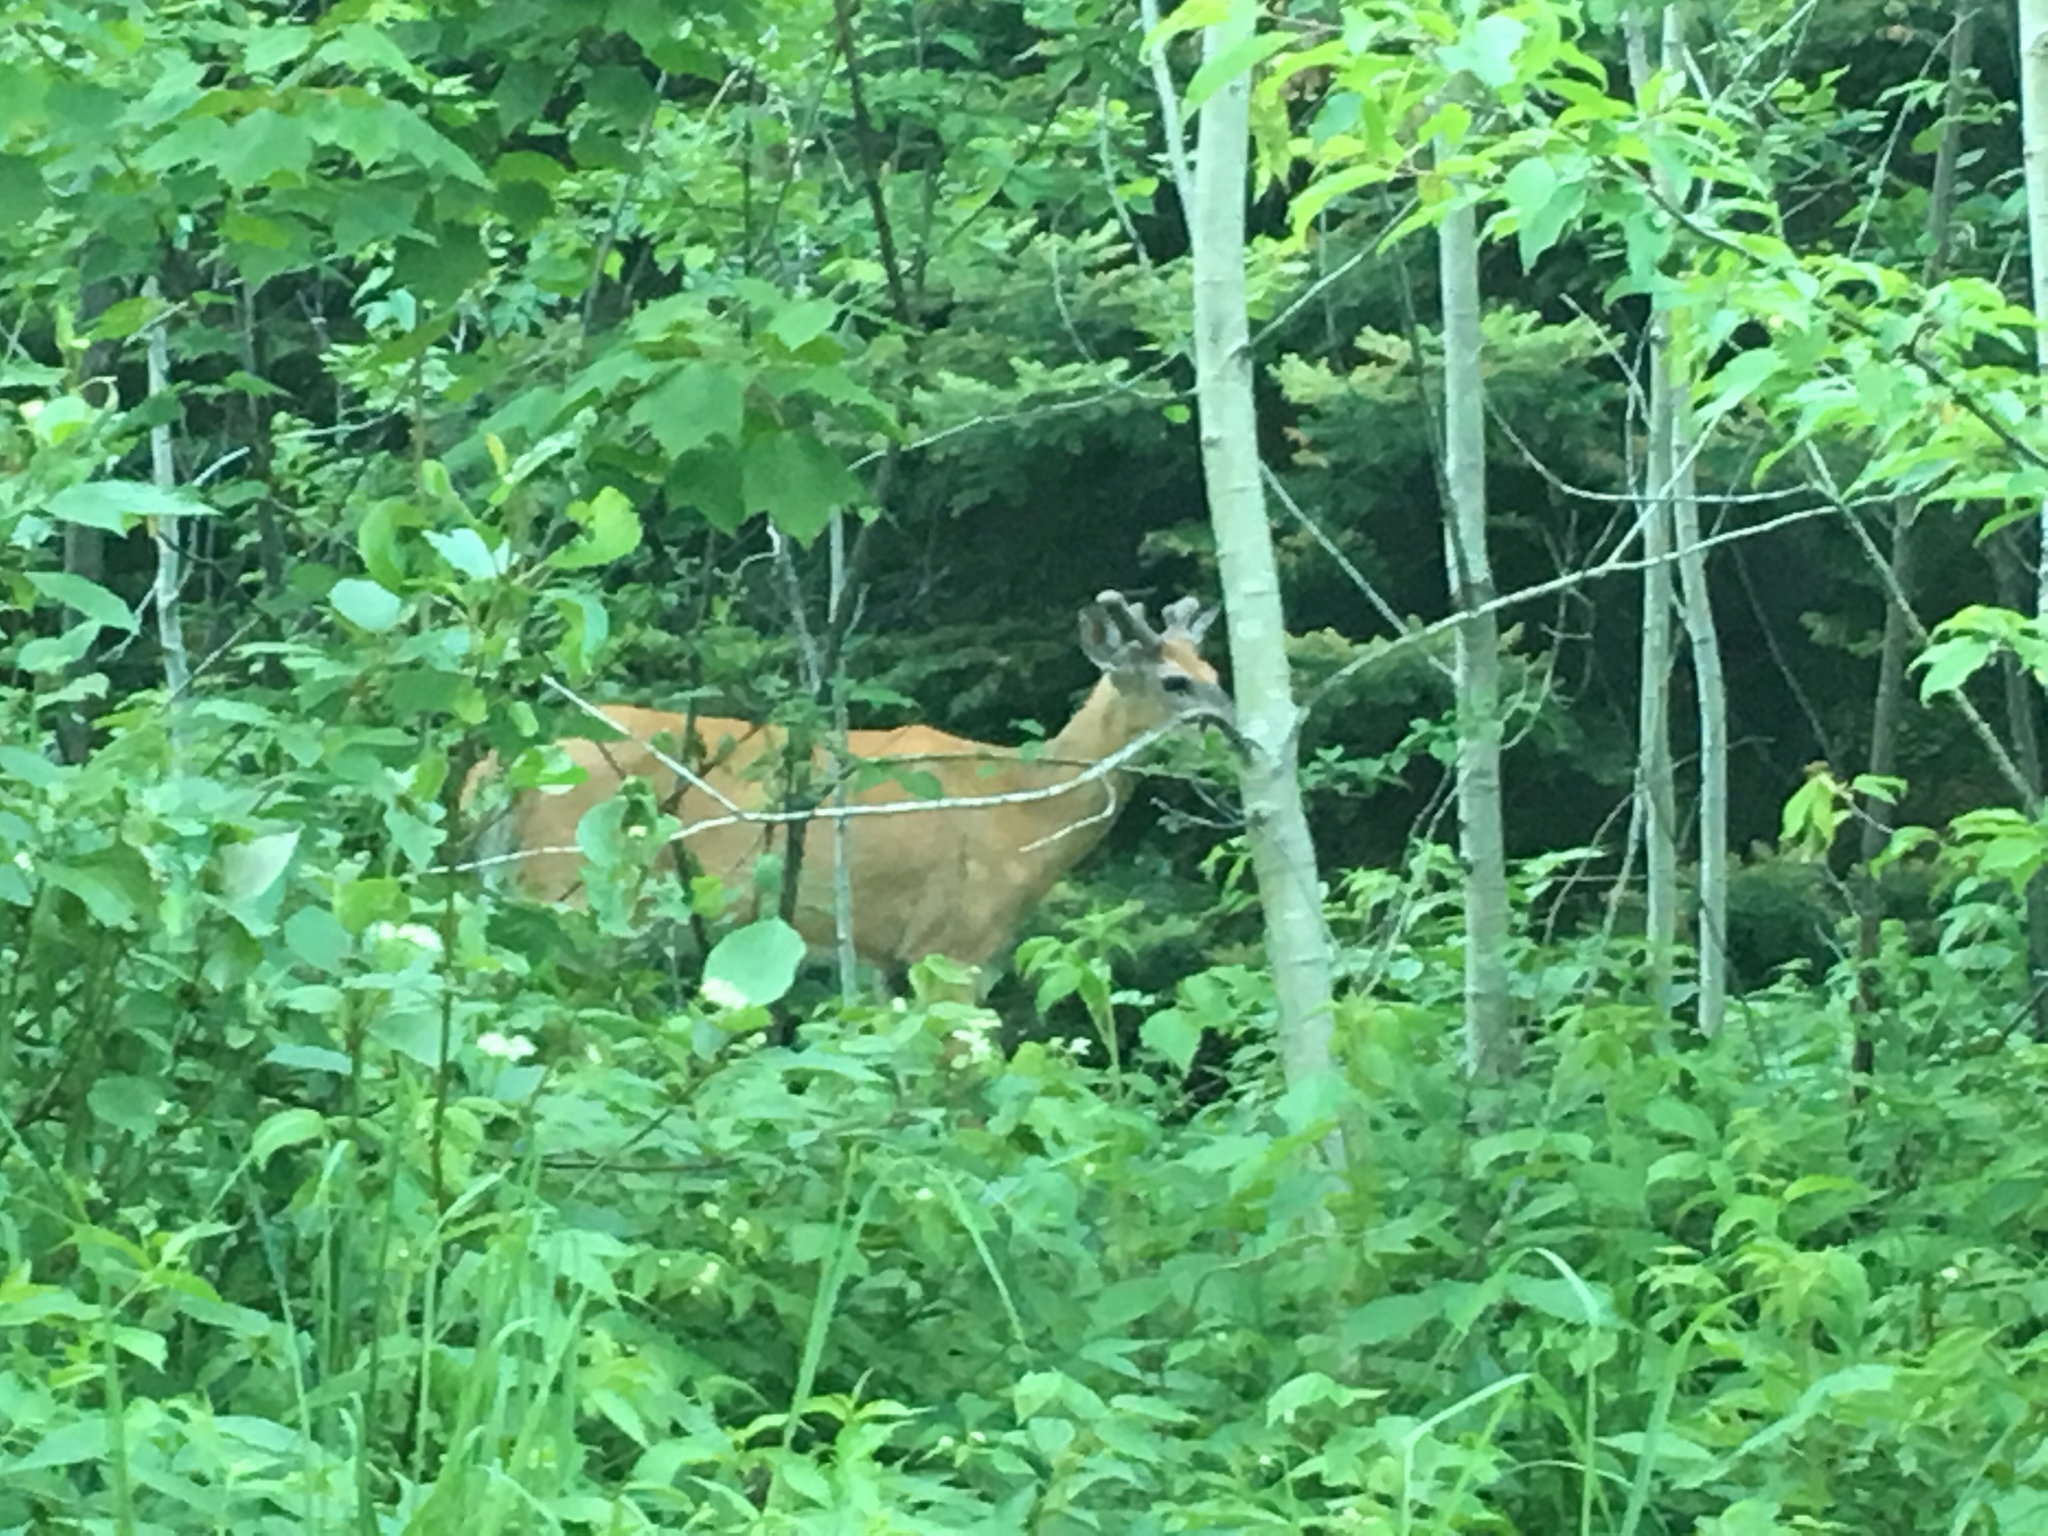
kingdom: Animalia
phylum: Chordata
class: Mammalia
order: Artiodactyla
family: Cervidae
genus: Odocoileus
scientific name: Odocoileus virginianus
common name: White-tailed deer
